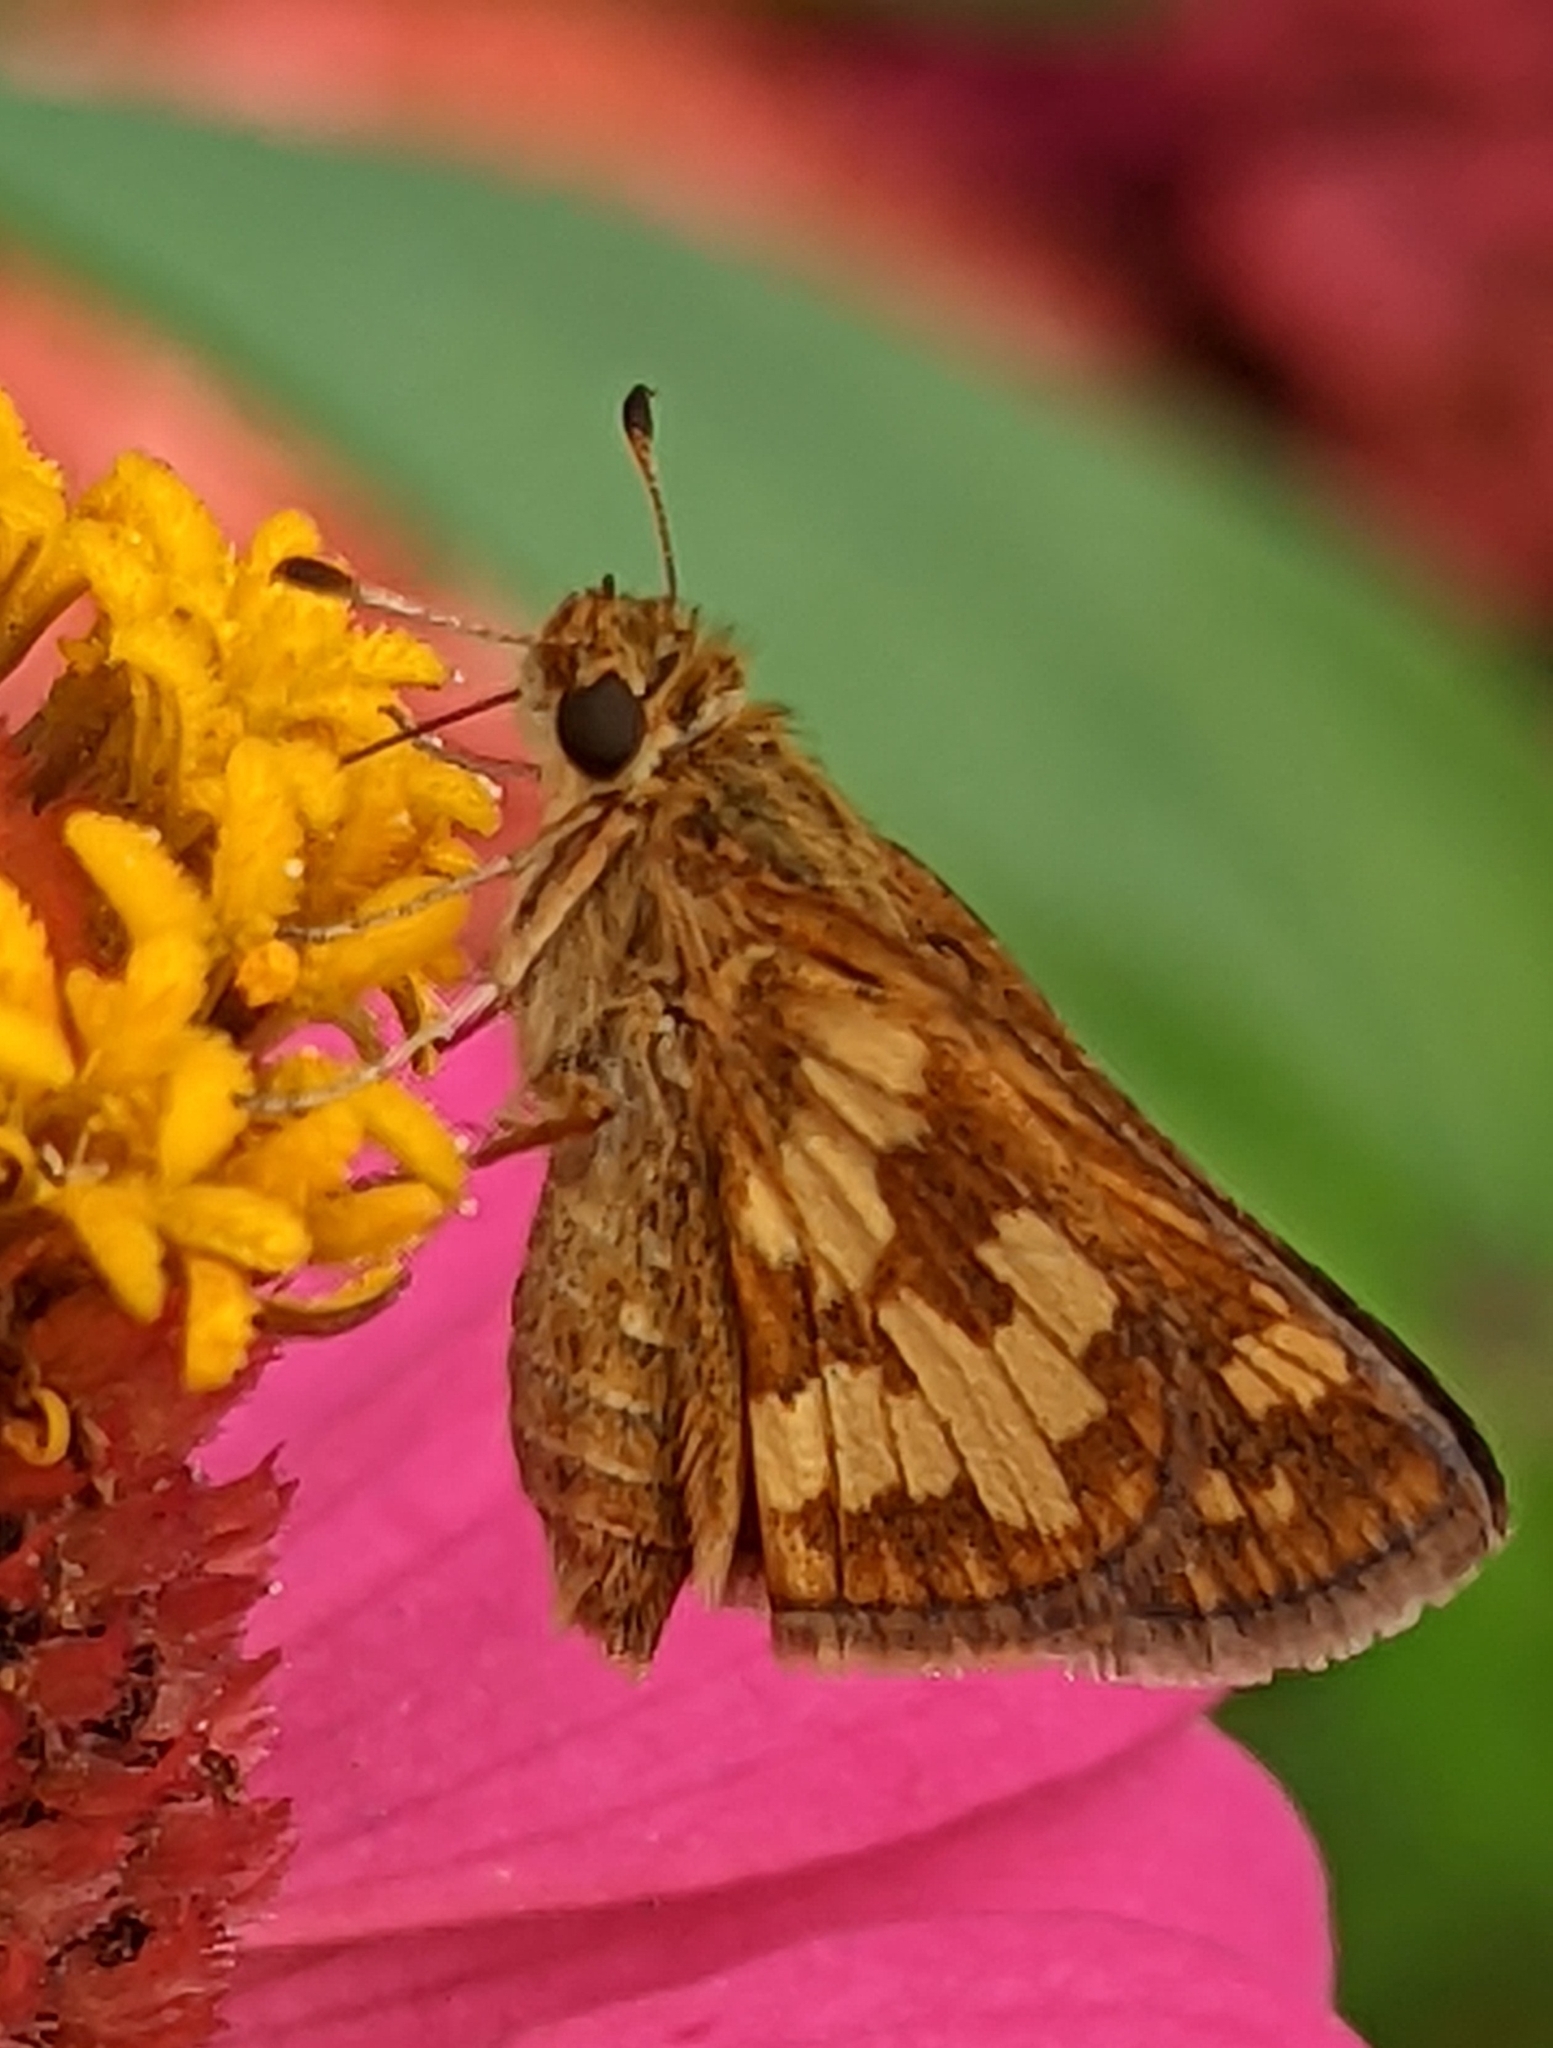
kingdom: Animalia
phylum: Arthropoda
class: Insecta
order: Lepidoptera
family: Hesperiidae
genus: Polites
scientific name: Polites coras
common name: Peck's skipper
